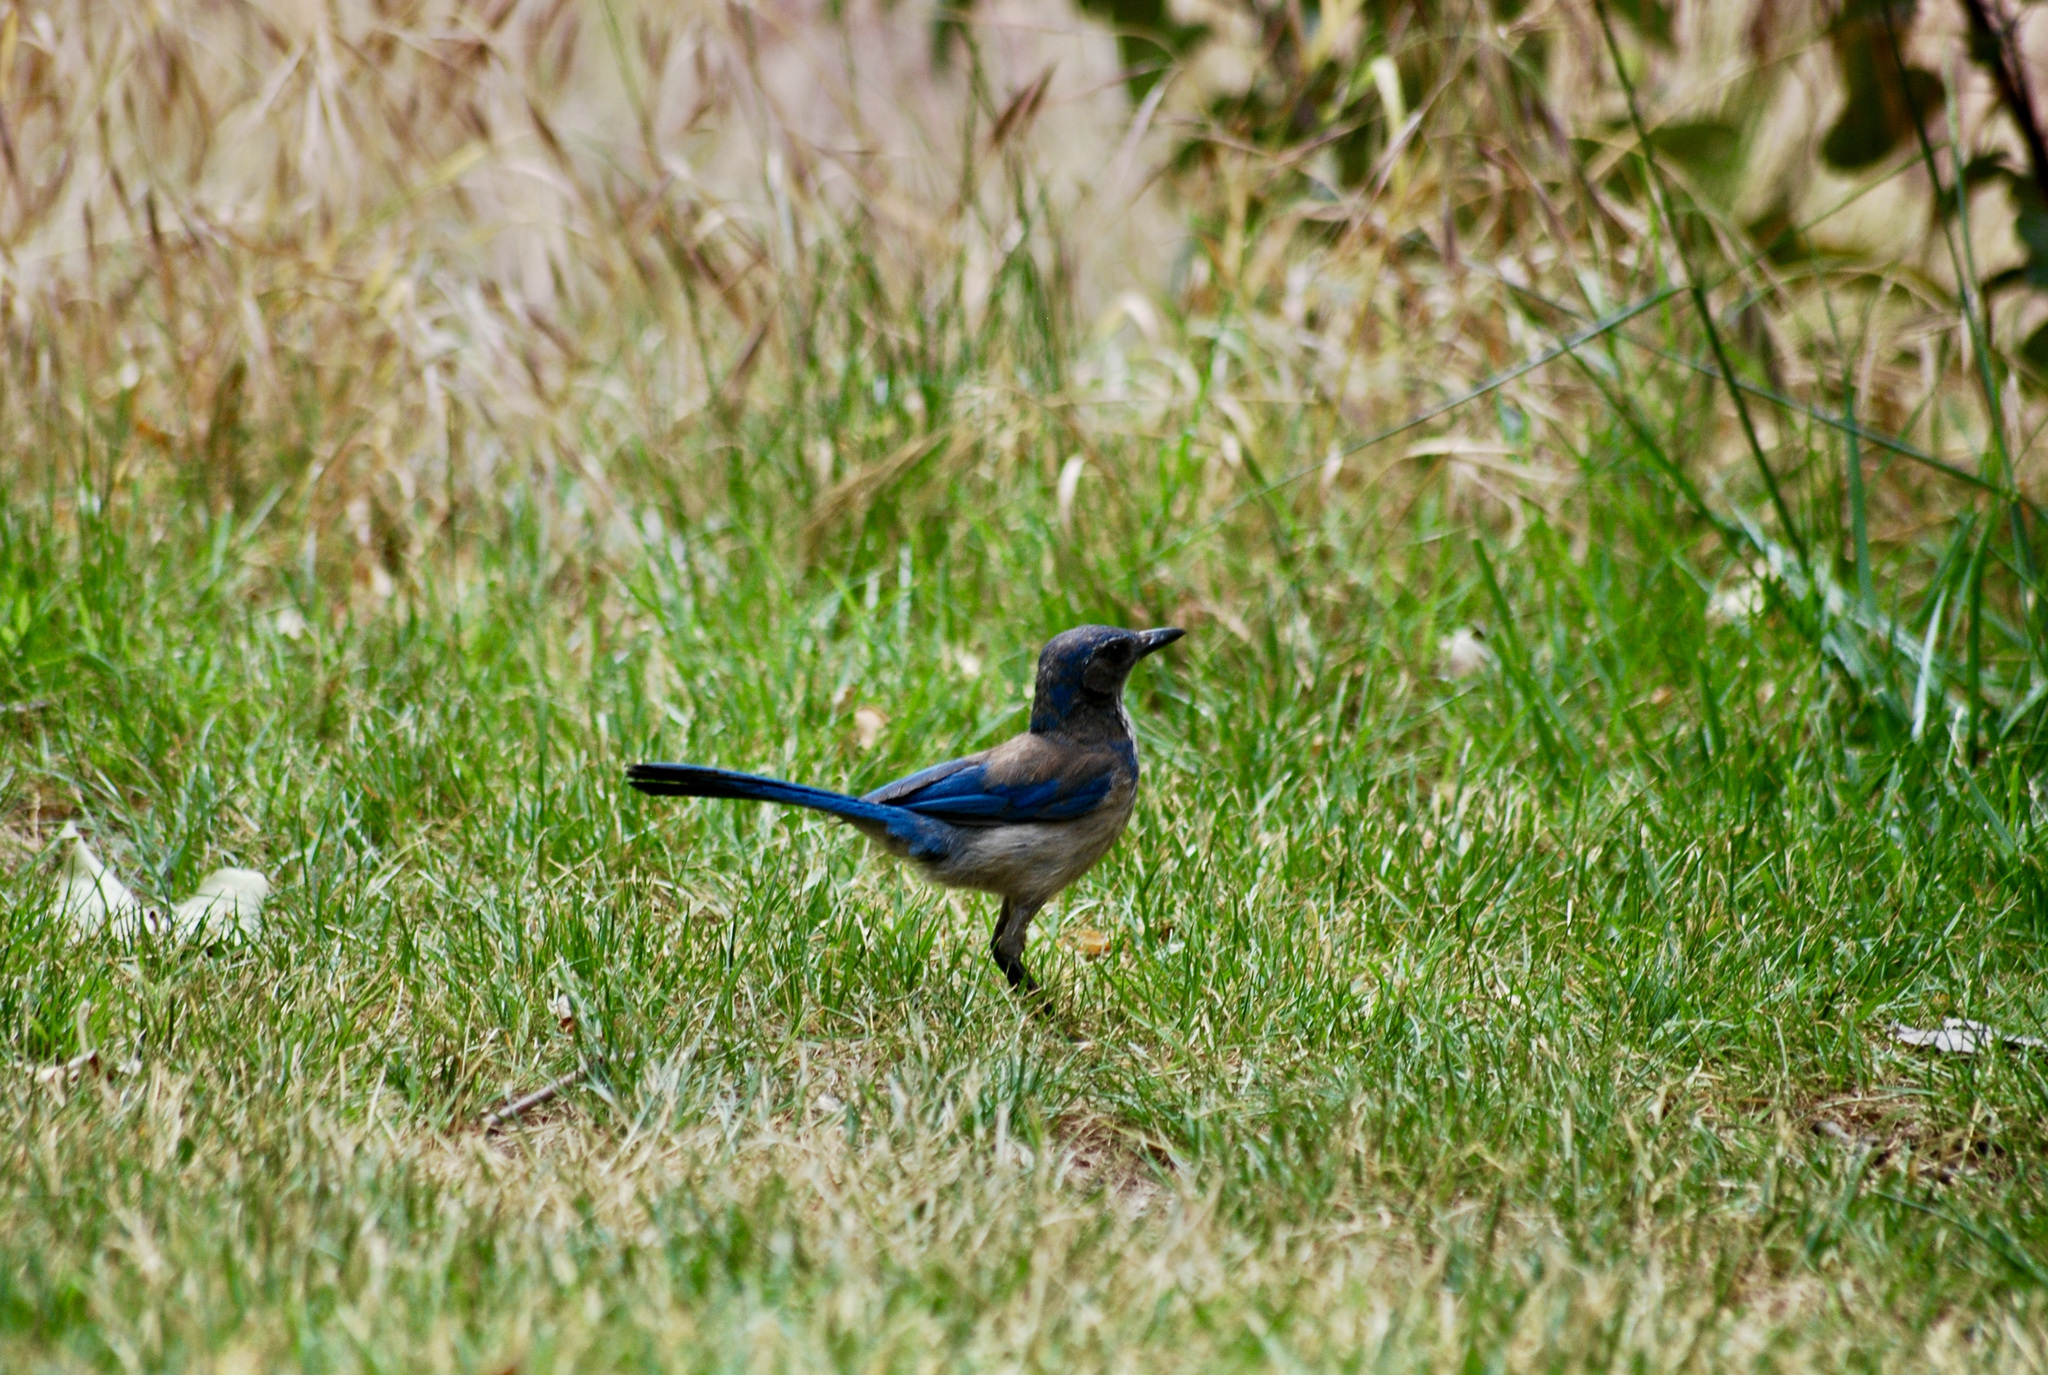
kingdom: Animalia
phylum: Chordata
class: Aves
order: Passeriformes
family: Corvidae
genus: Aphelocoma
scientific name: Aphelocoma californica
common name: California scrub-jay
